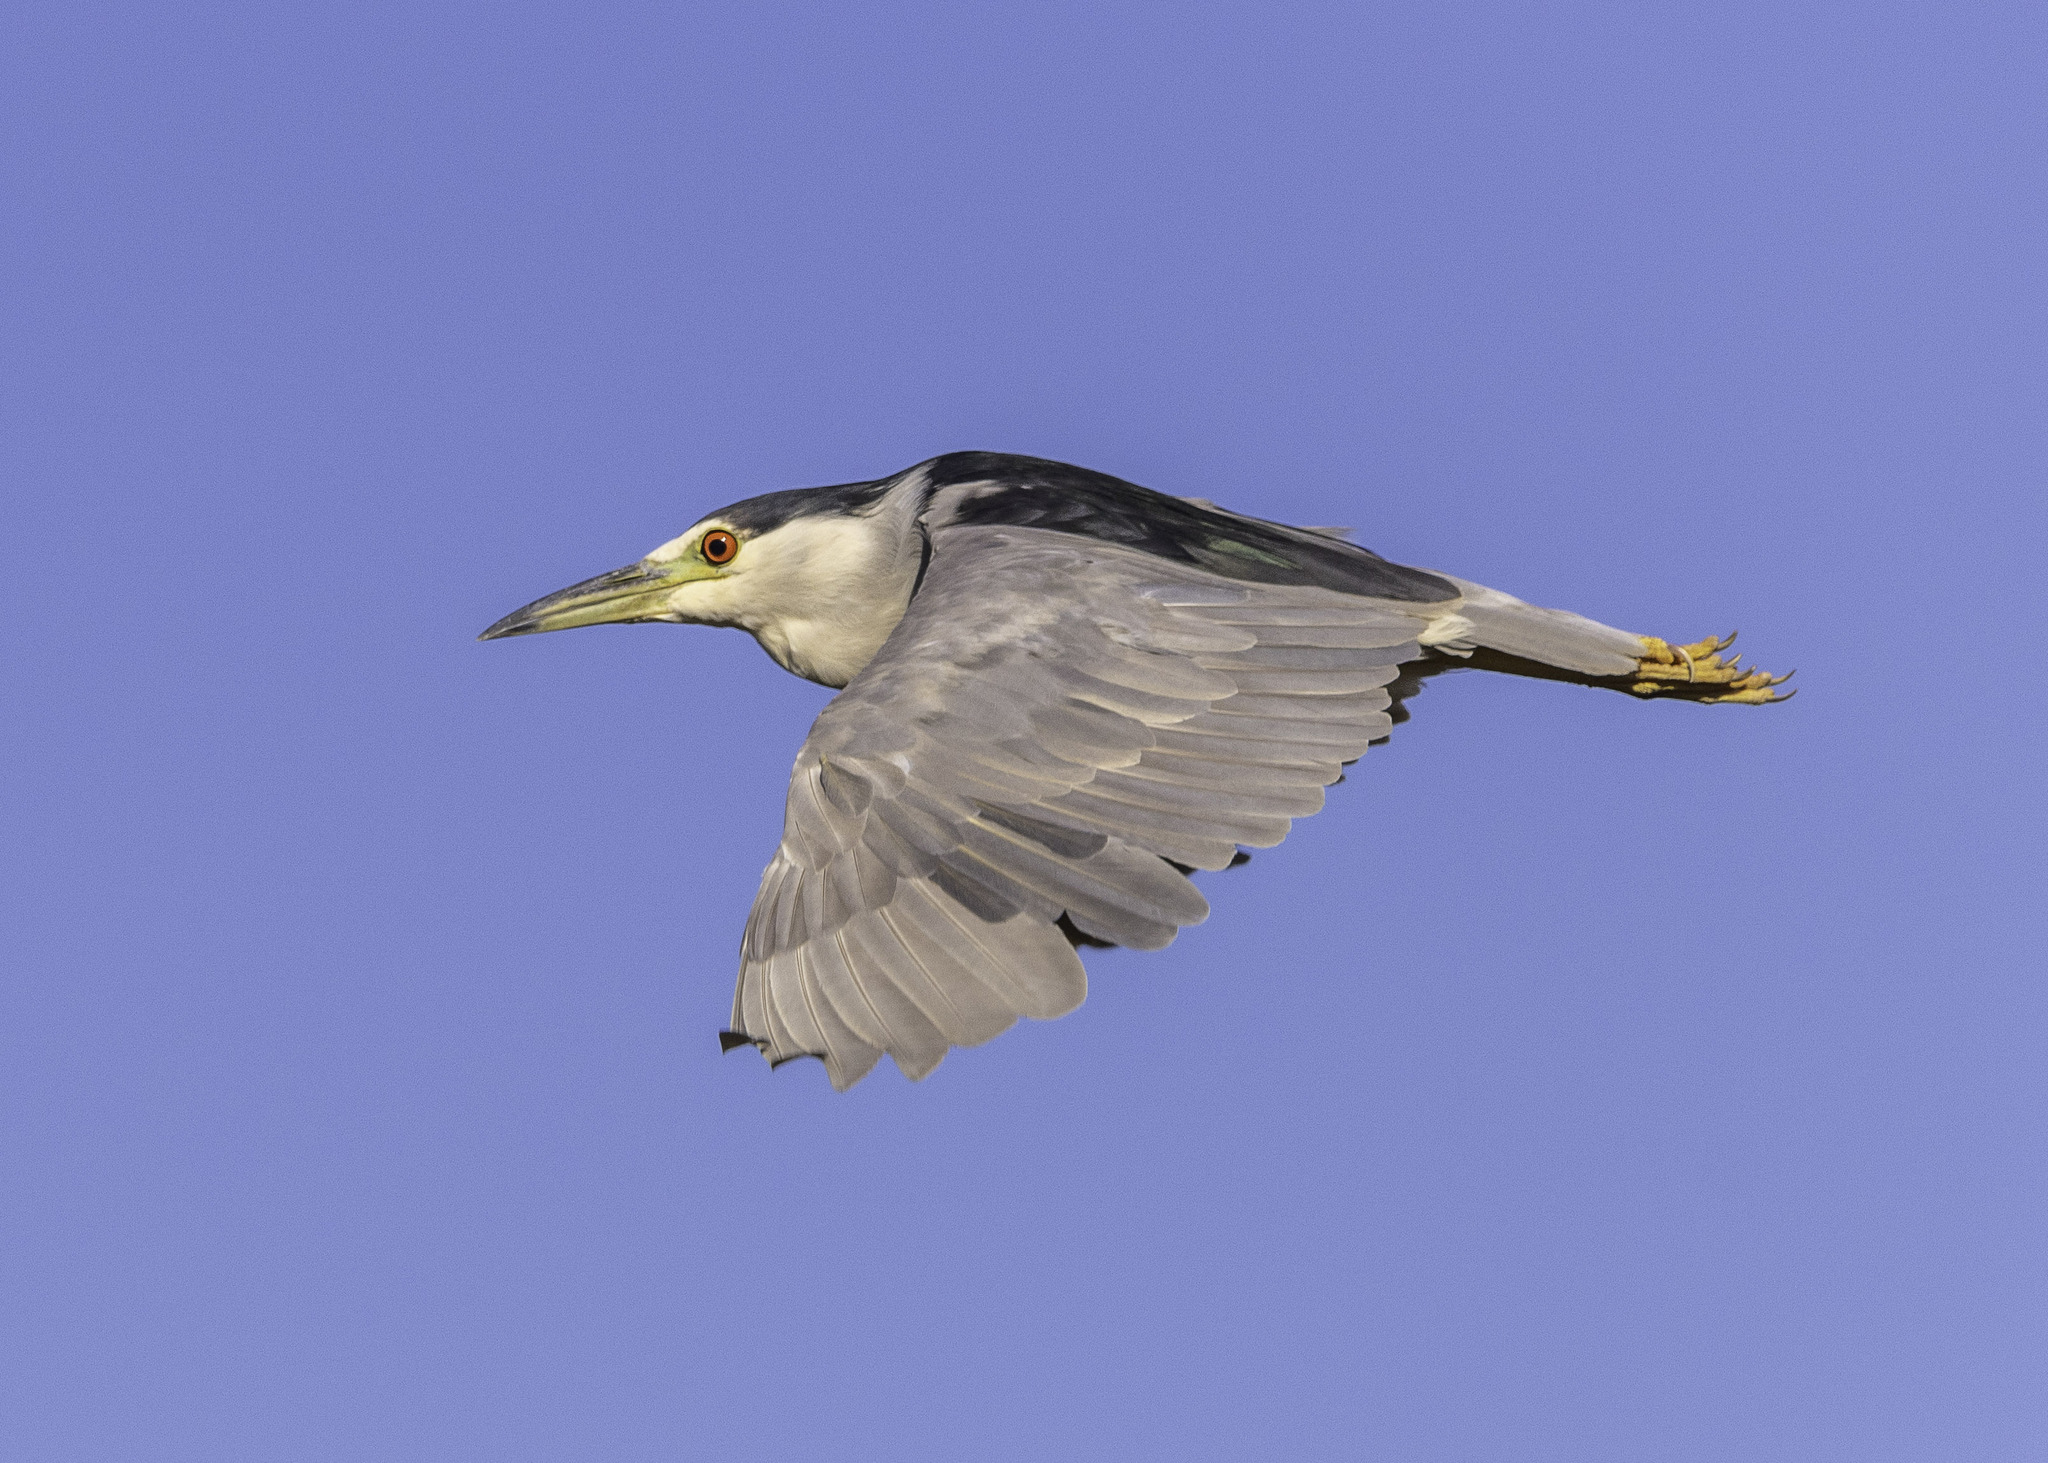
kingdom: Animalia
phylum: Chordata
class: Aves
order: Pelecaniformes
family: Ardeidae
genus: Nycticorax
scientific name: Nycticorax nycticorax
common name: Black-crowned night heron
